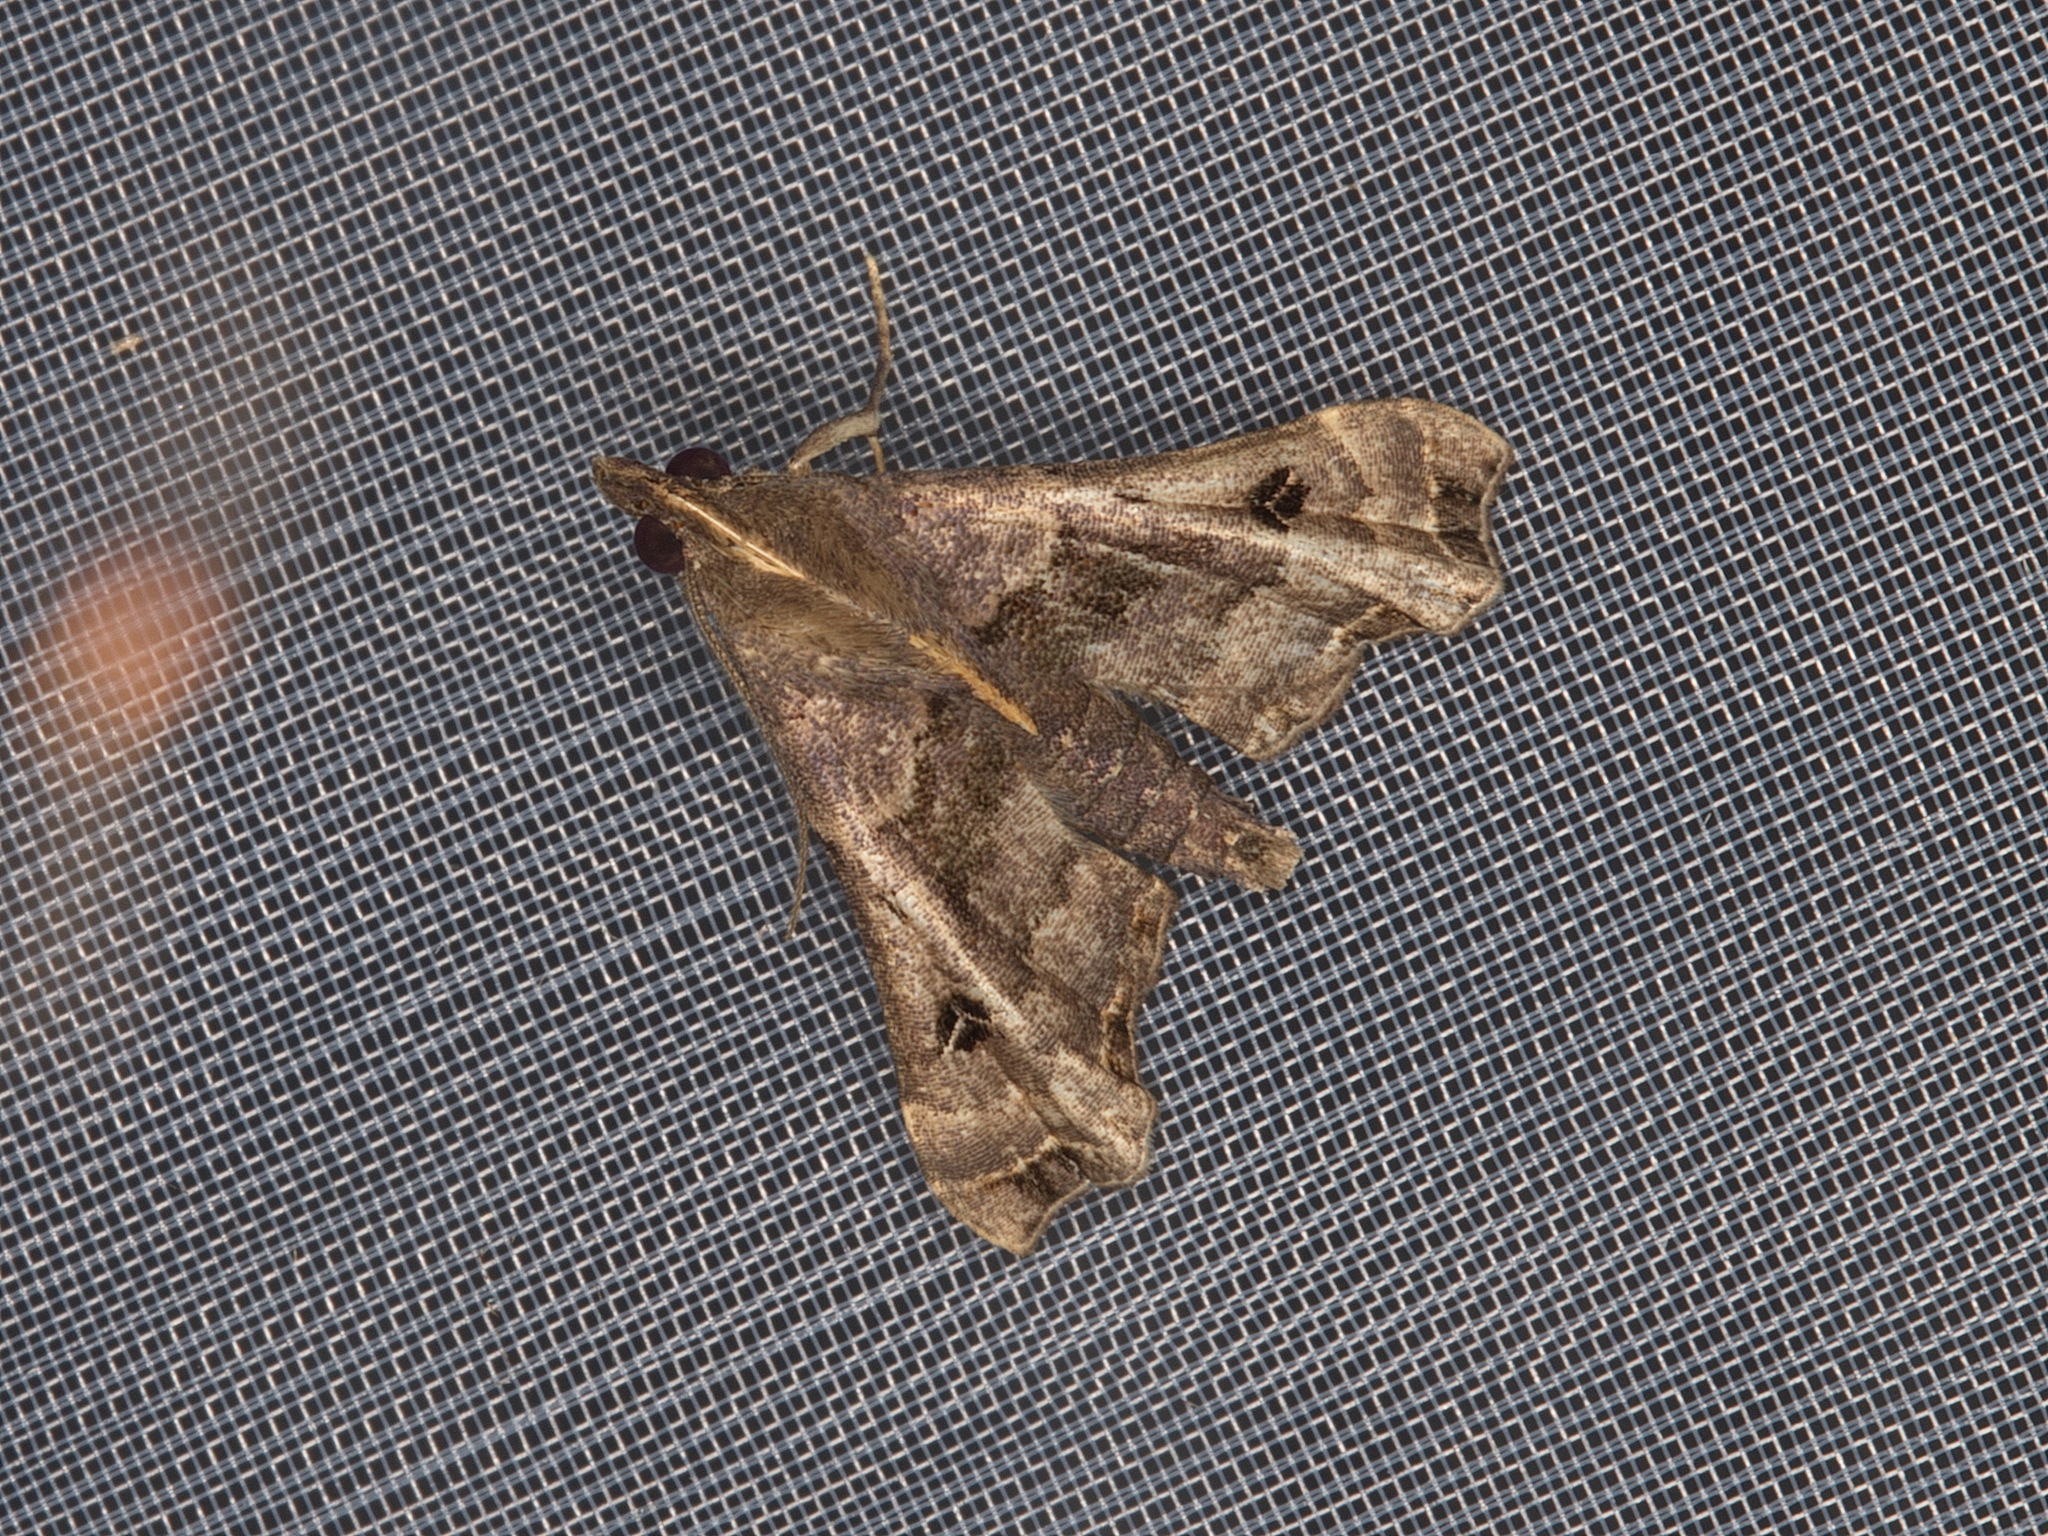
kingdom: Animalia
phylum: Arthropoda
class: Insecta
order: Lepidoptera
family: Erebidae
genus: Palthis
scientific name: Palthis asopialis
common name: Faint-spotted palthis moth
